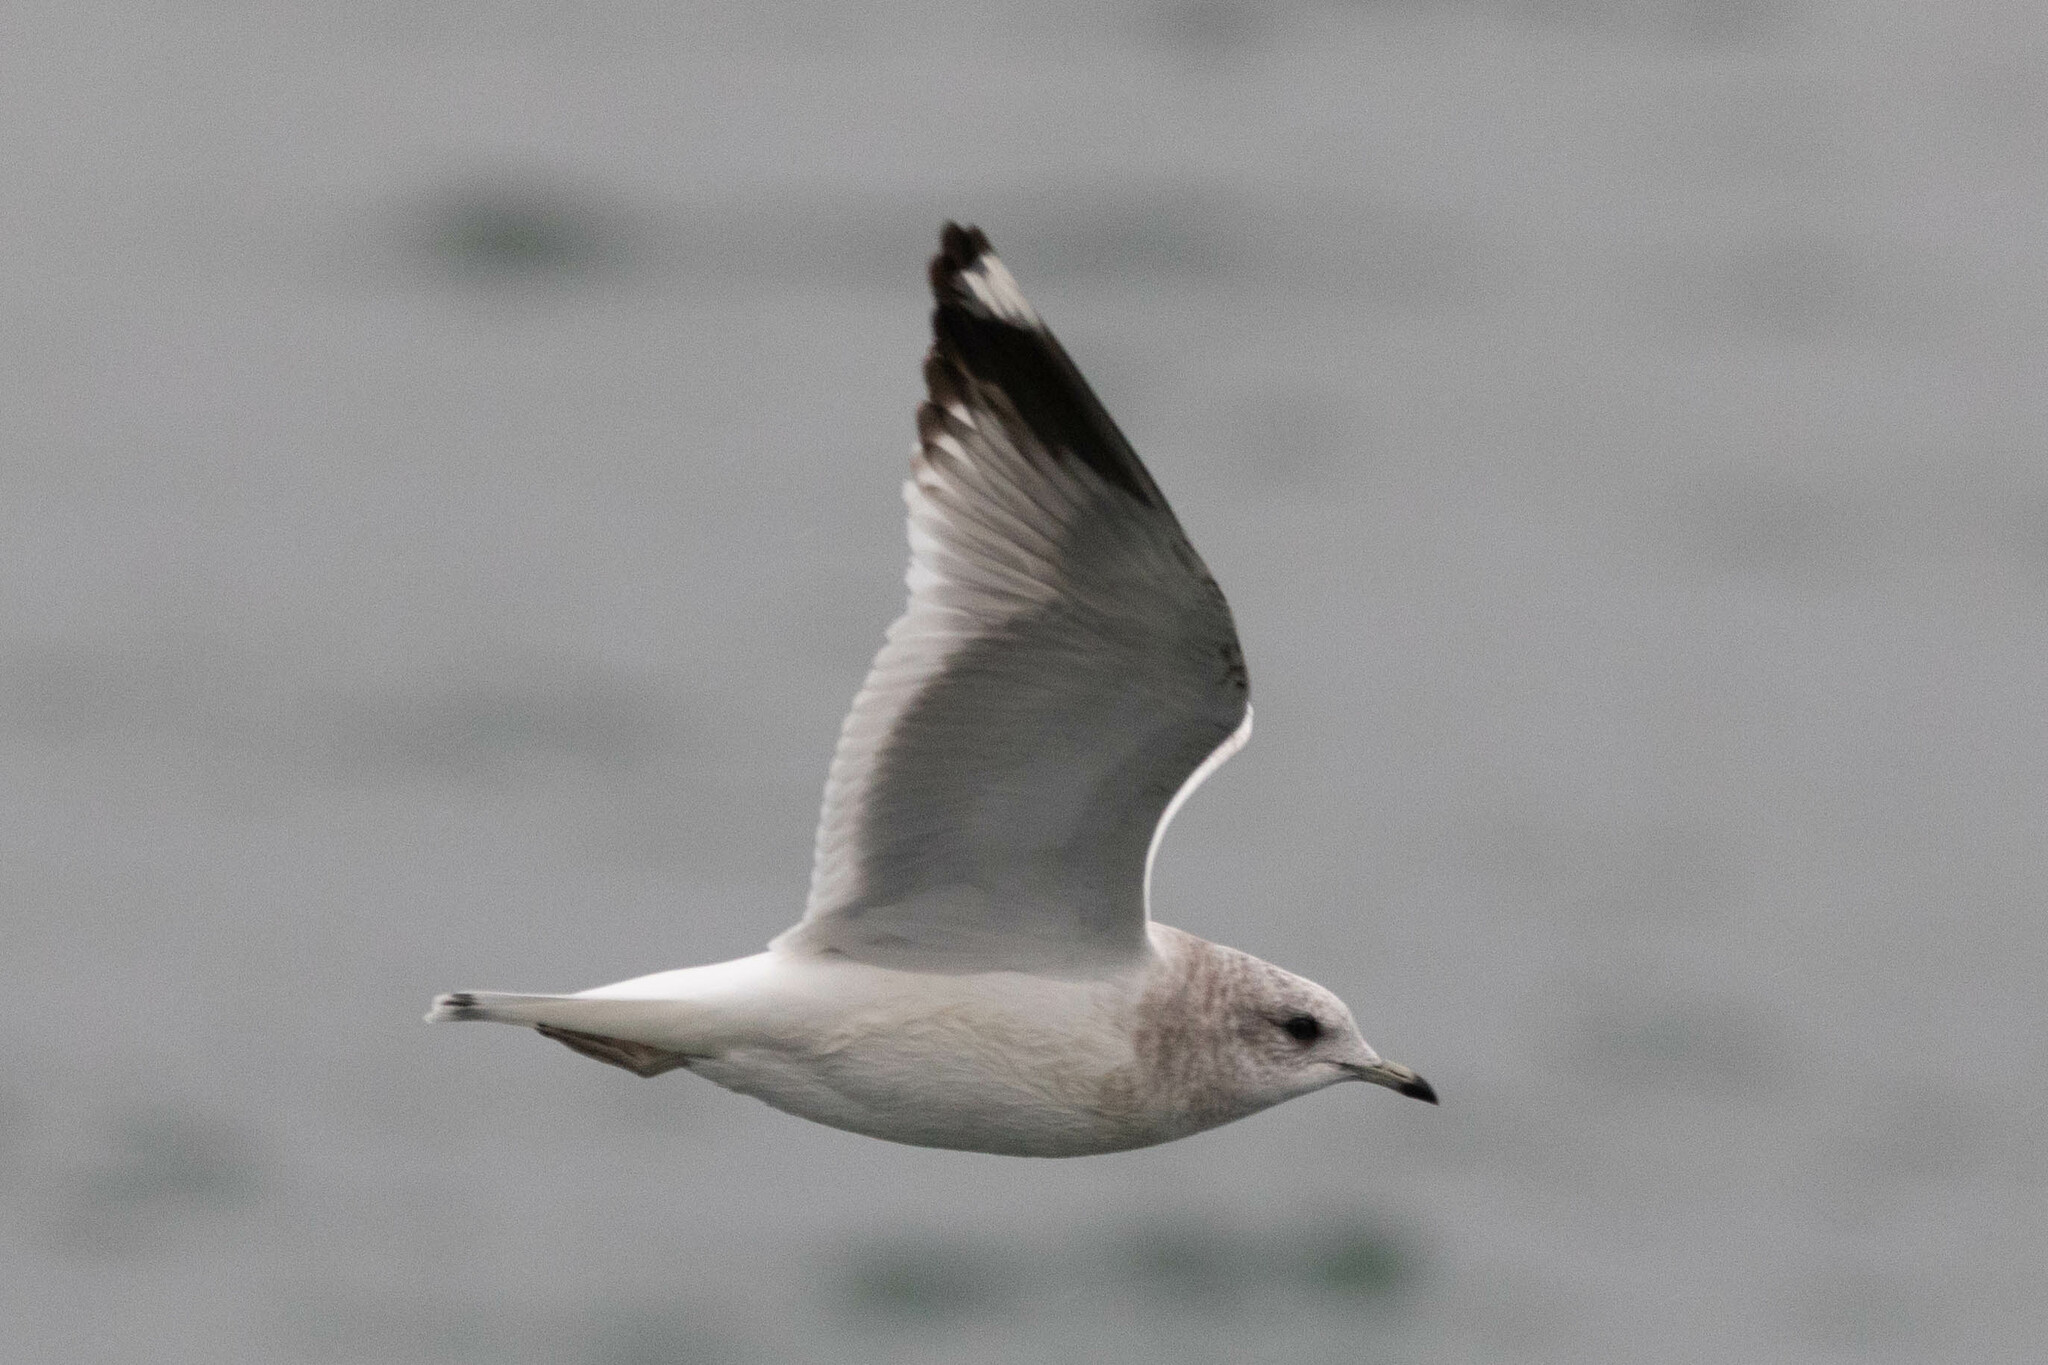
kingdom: Animalia
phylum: Chordata
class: Aves
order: Charadriiformes
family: Laridae
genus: Larus
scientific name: Larus brachyrhynchus
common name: Short-billed gull
